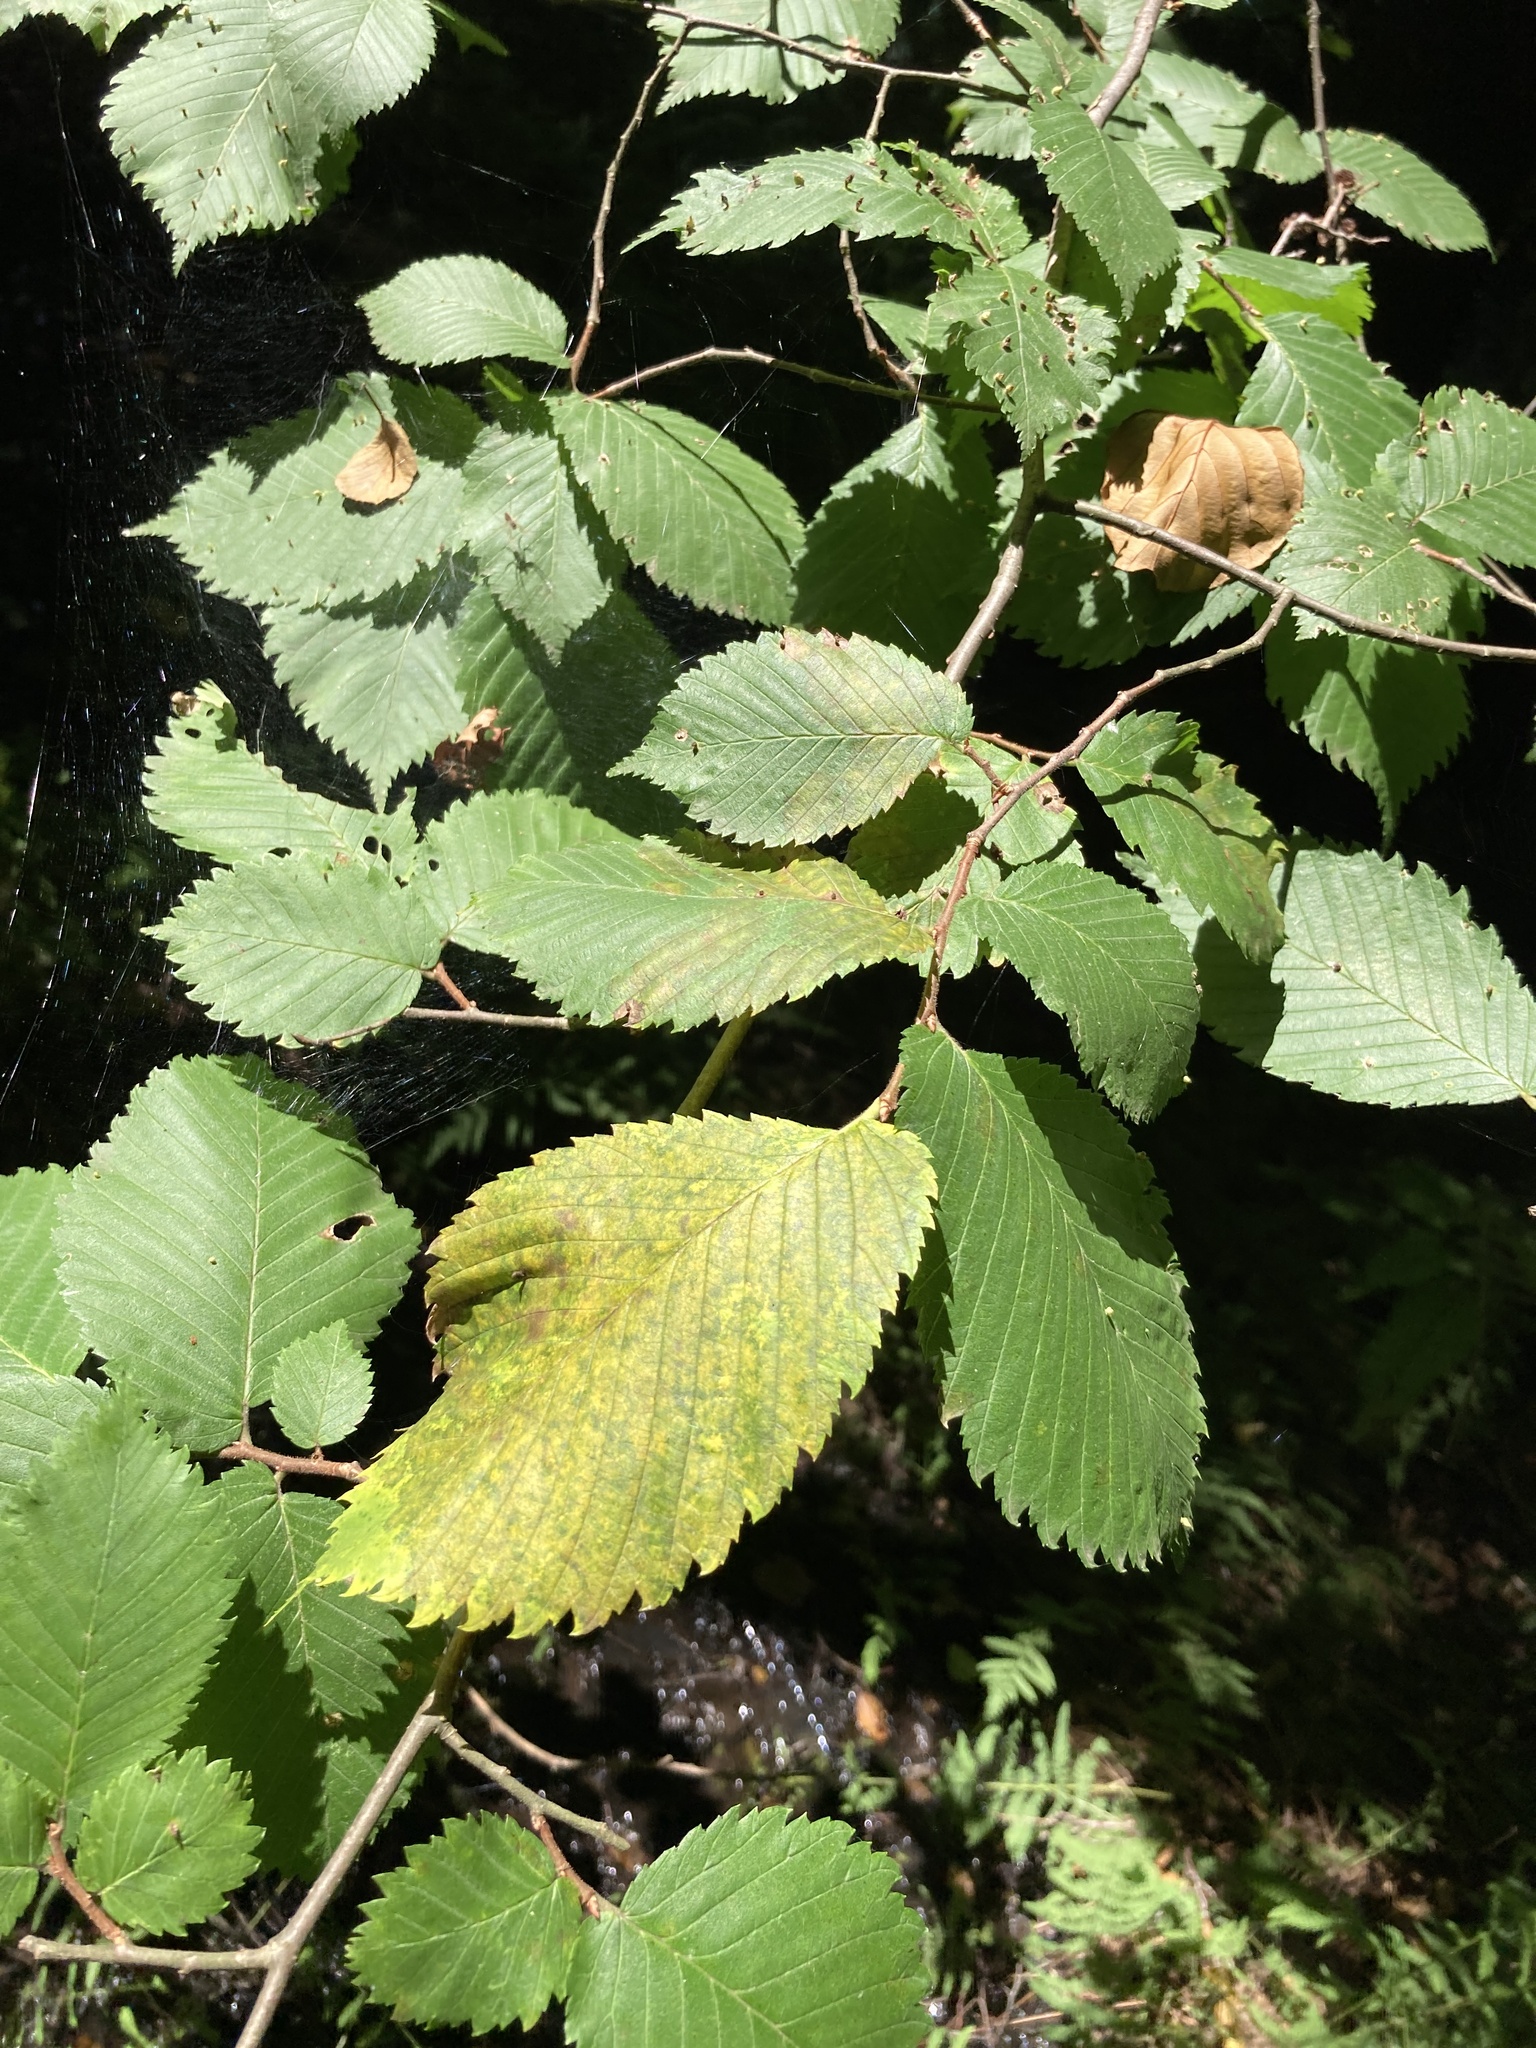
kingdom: Plantae
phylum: Tracheophyta
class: Magnoliopsida
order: Rosales
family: Ulmaceae
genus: Ulmus
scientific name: Ulmus laevis
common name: European white-elm
